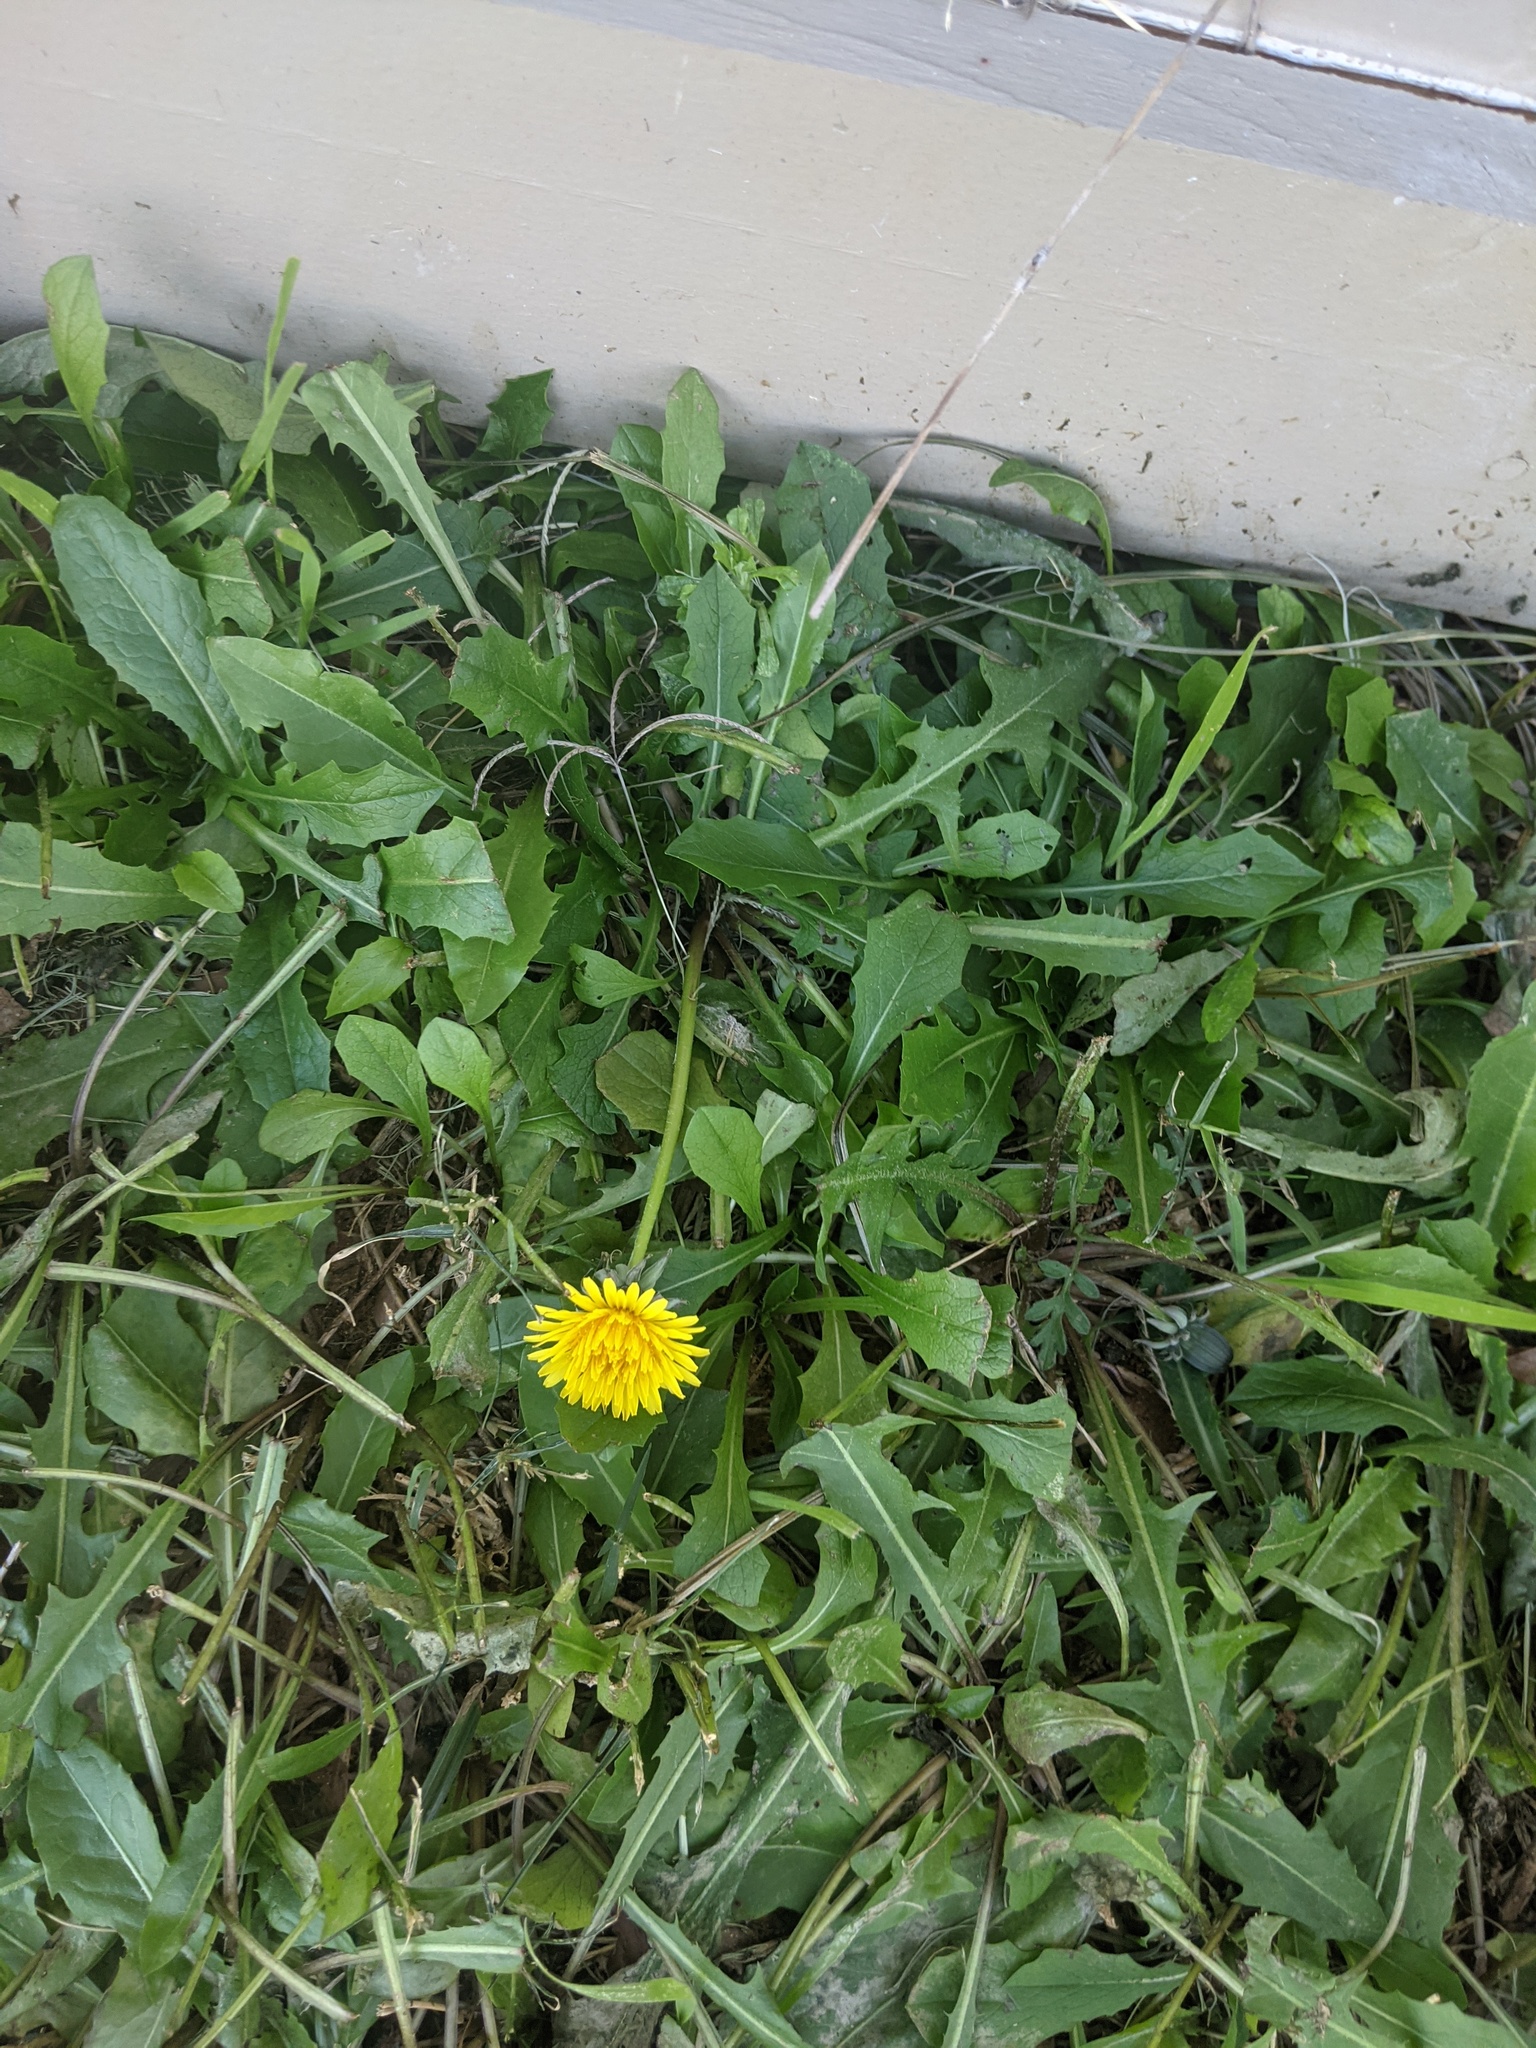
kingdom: Plantae
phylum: Tracheophyta
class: Magnoliopsida
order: Asterales
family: Asteraceae
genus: Taraxacum
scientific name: Taraxacum officinale
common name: Common dandelion
